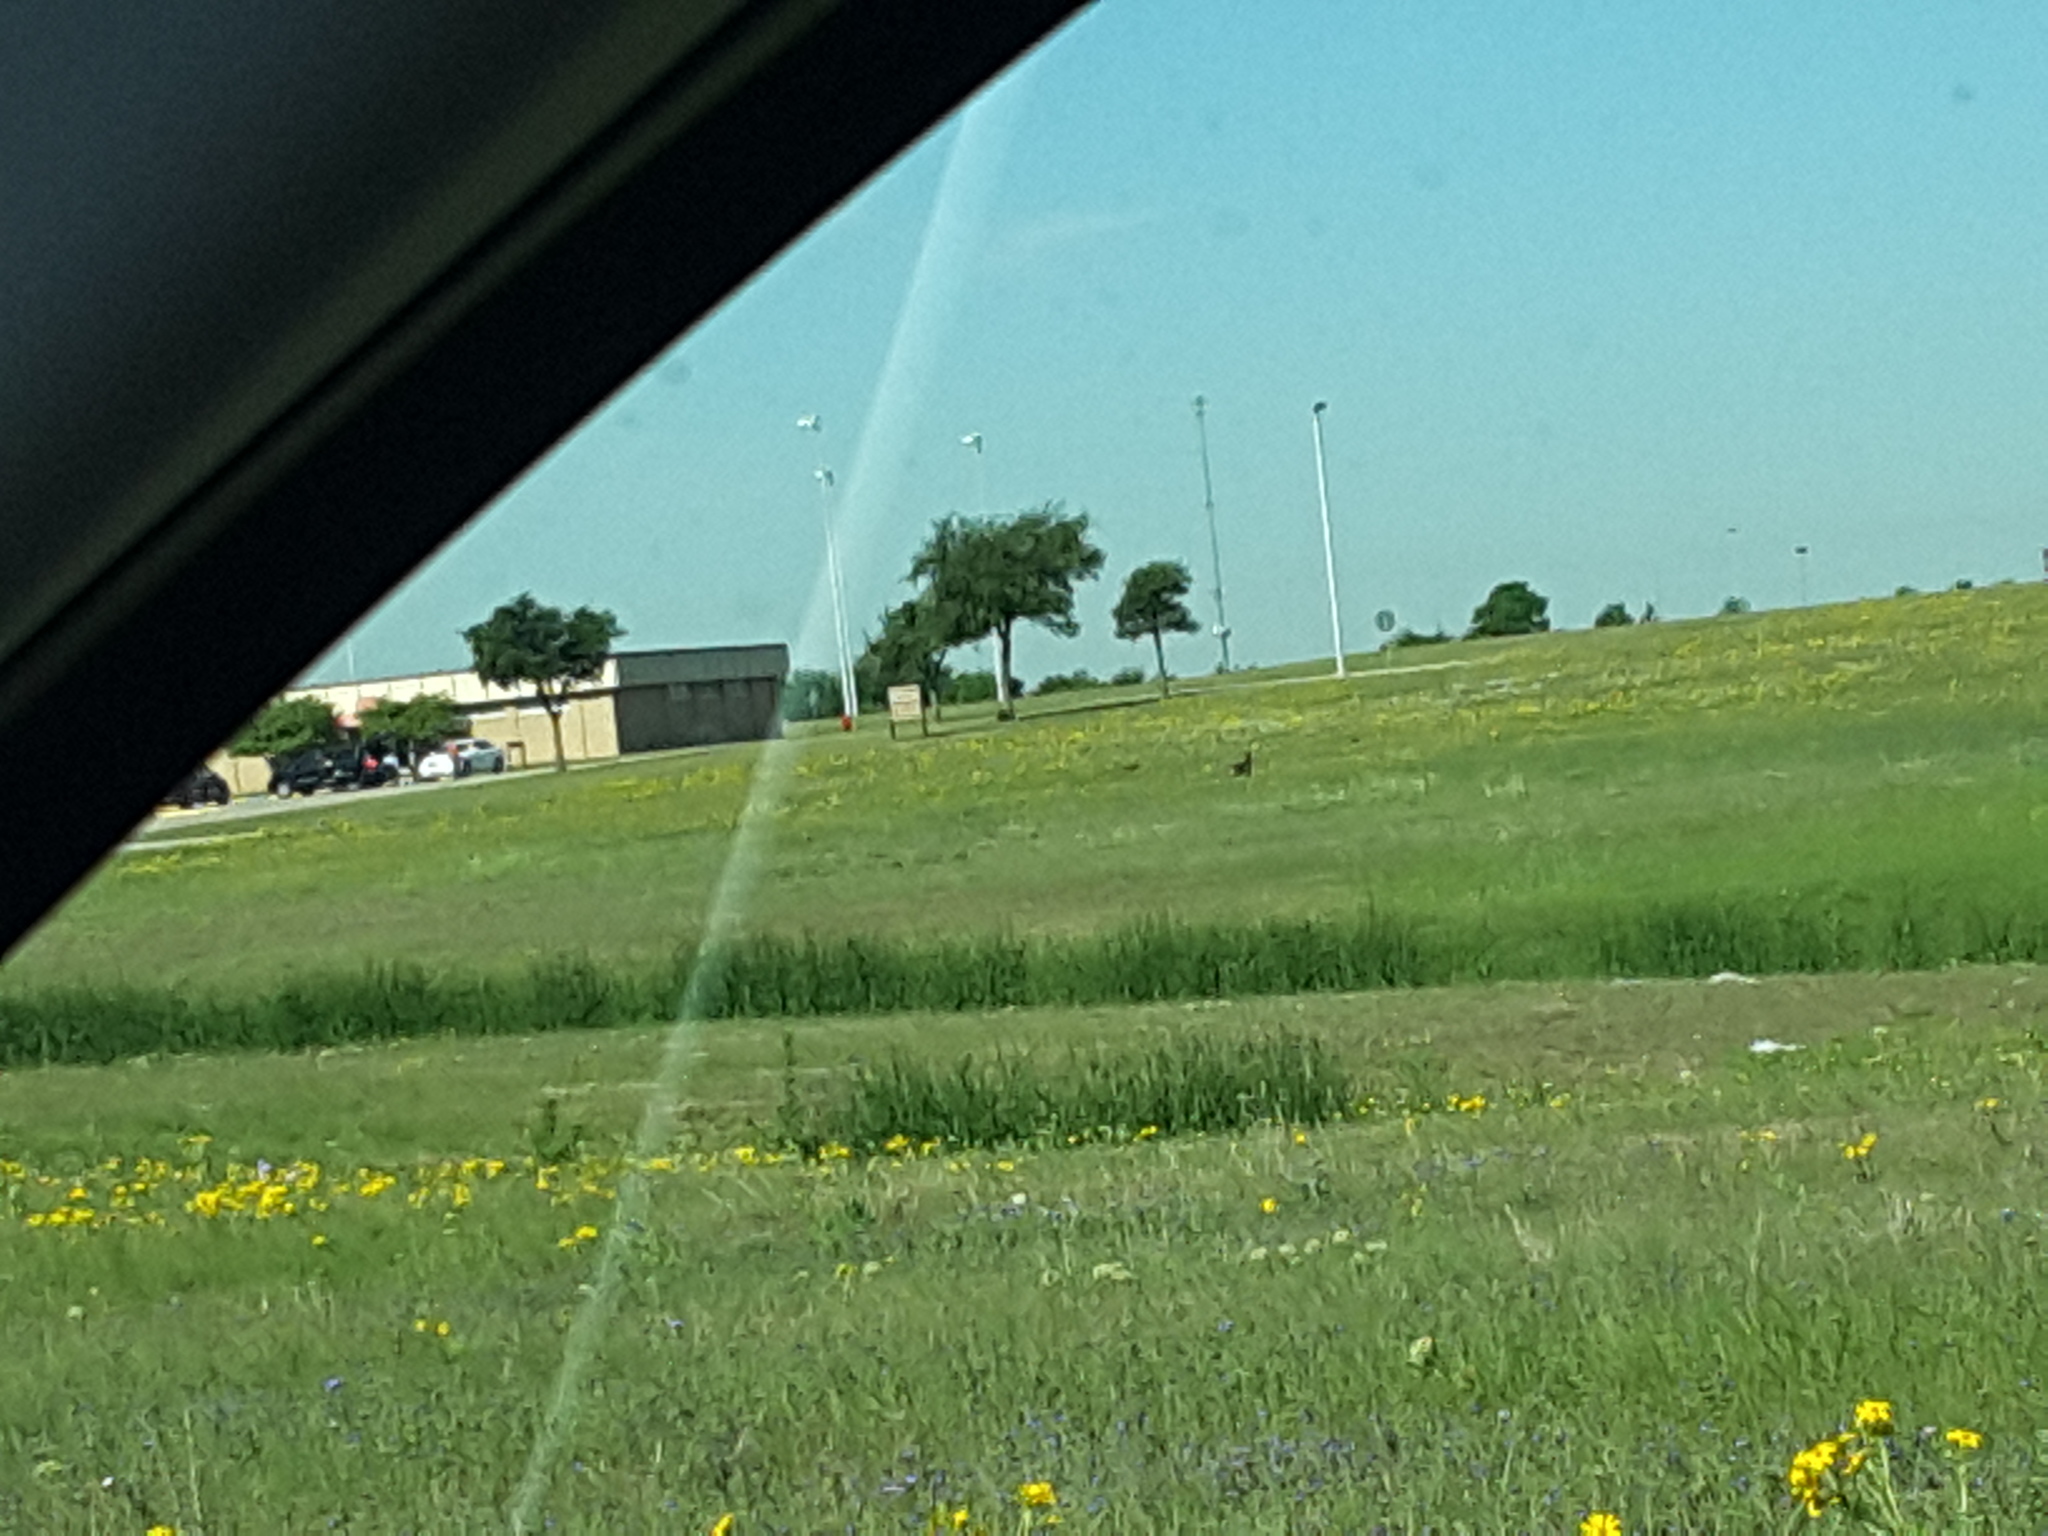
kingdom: Animalia
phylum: Chordata
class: Mammalia
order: Carnivora
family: Canidae
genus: Canis
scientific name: Canis latrans
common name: Coyote
